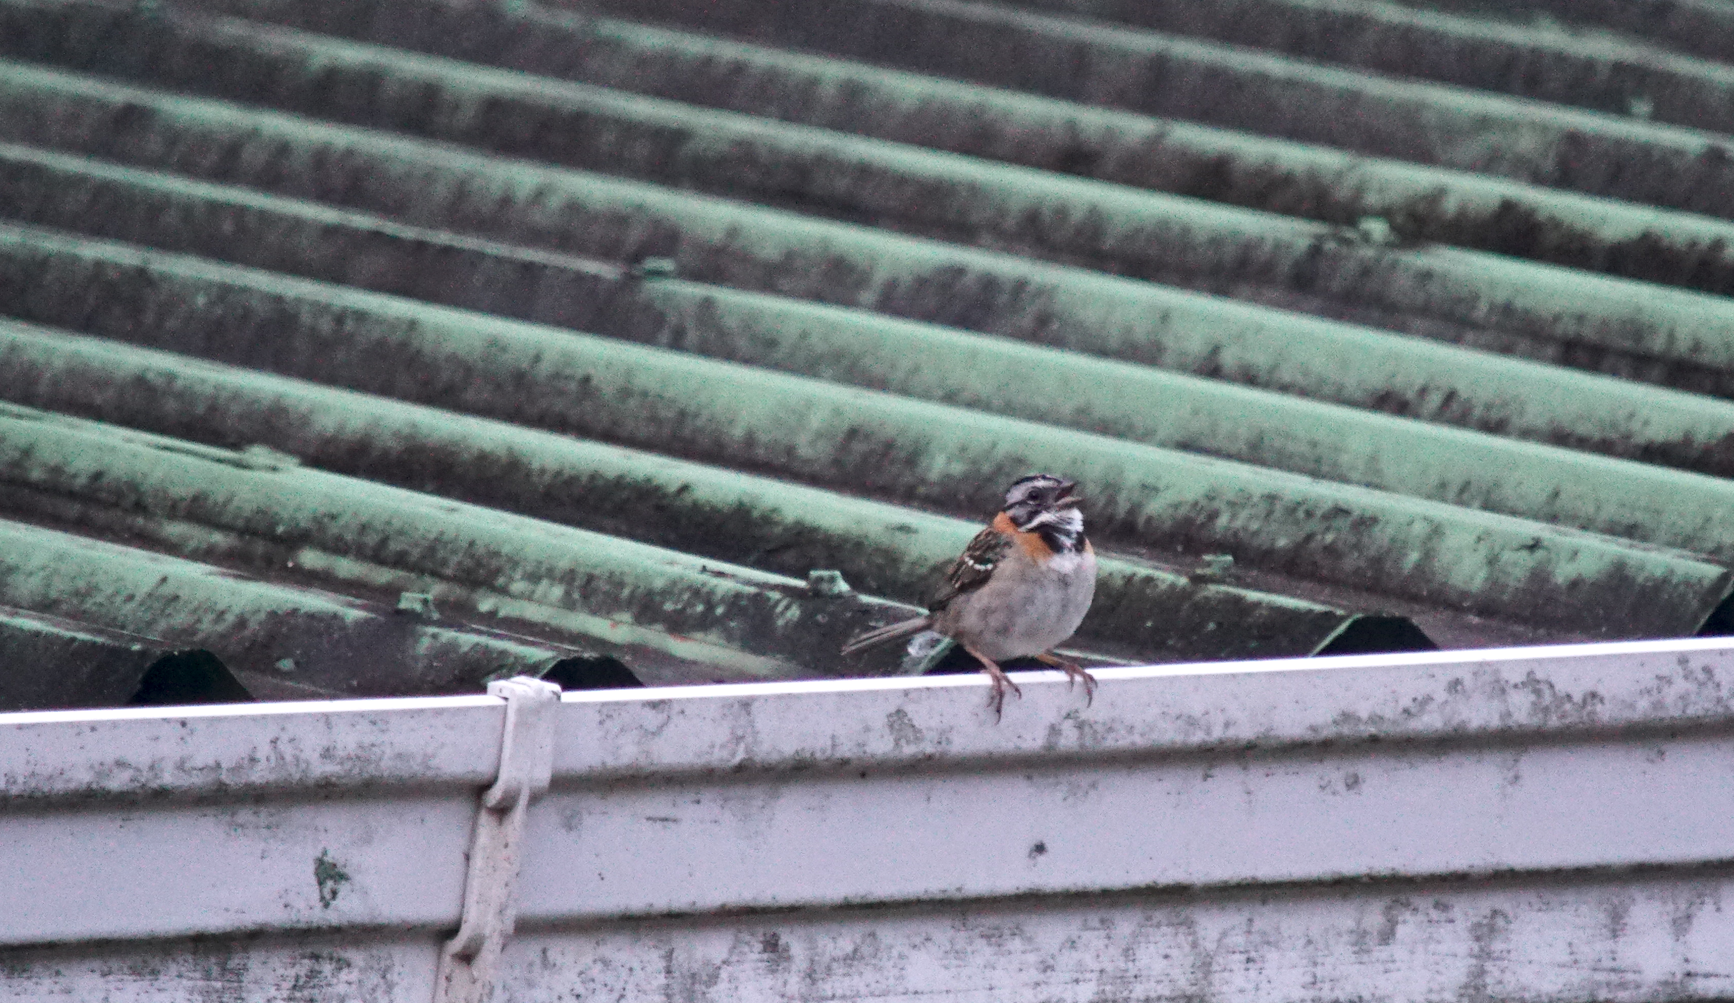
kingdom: Animalia
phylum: Chordata
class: Aves
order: Passeriformes
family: Passerellidae
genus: Zonotrichia
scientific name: Zonotrichia capensis
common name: Rufous-collared sparrow
